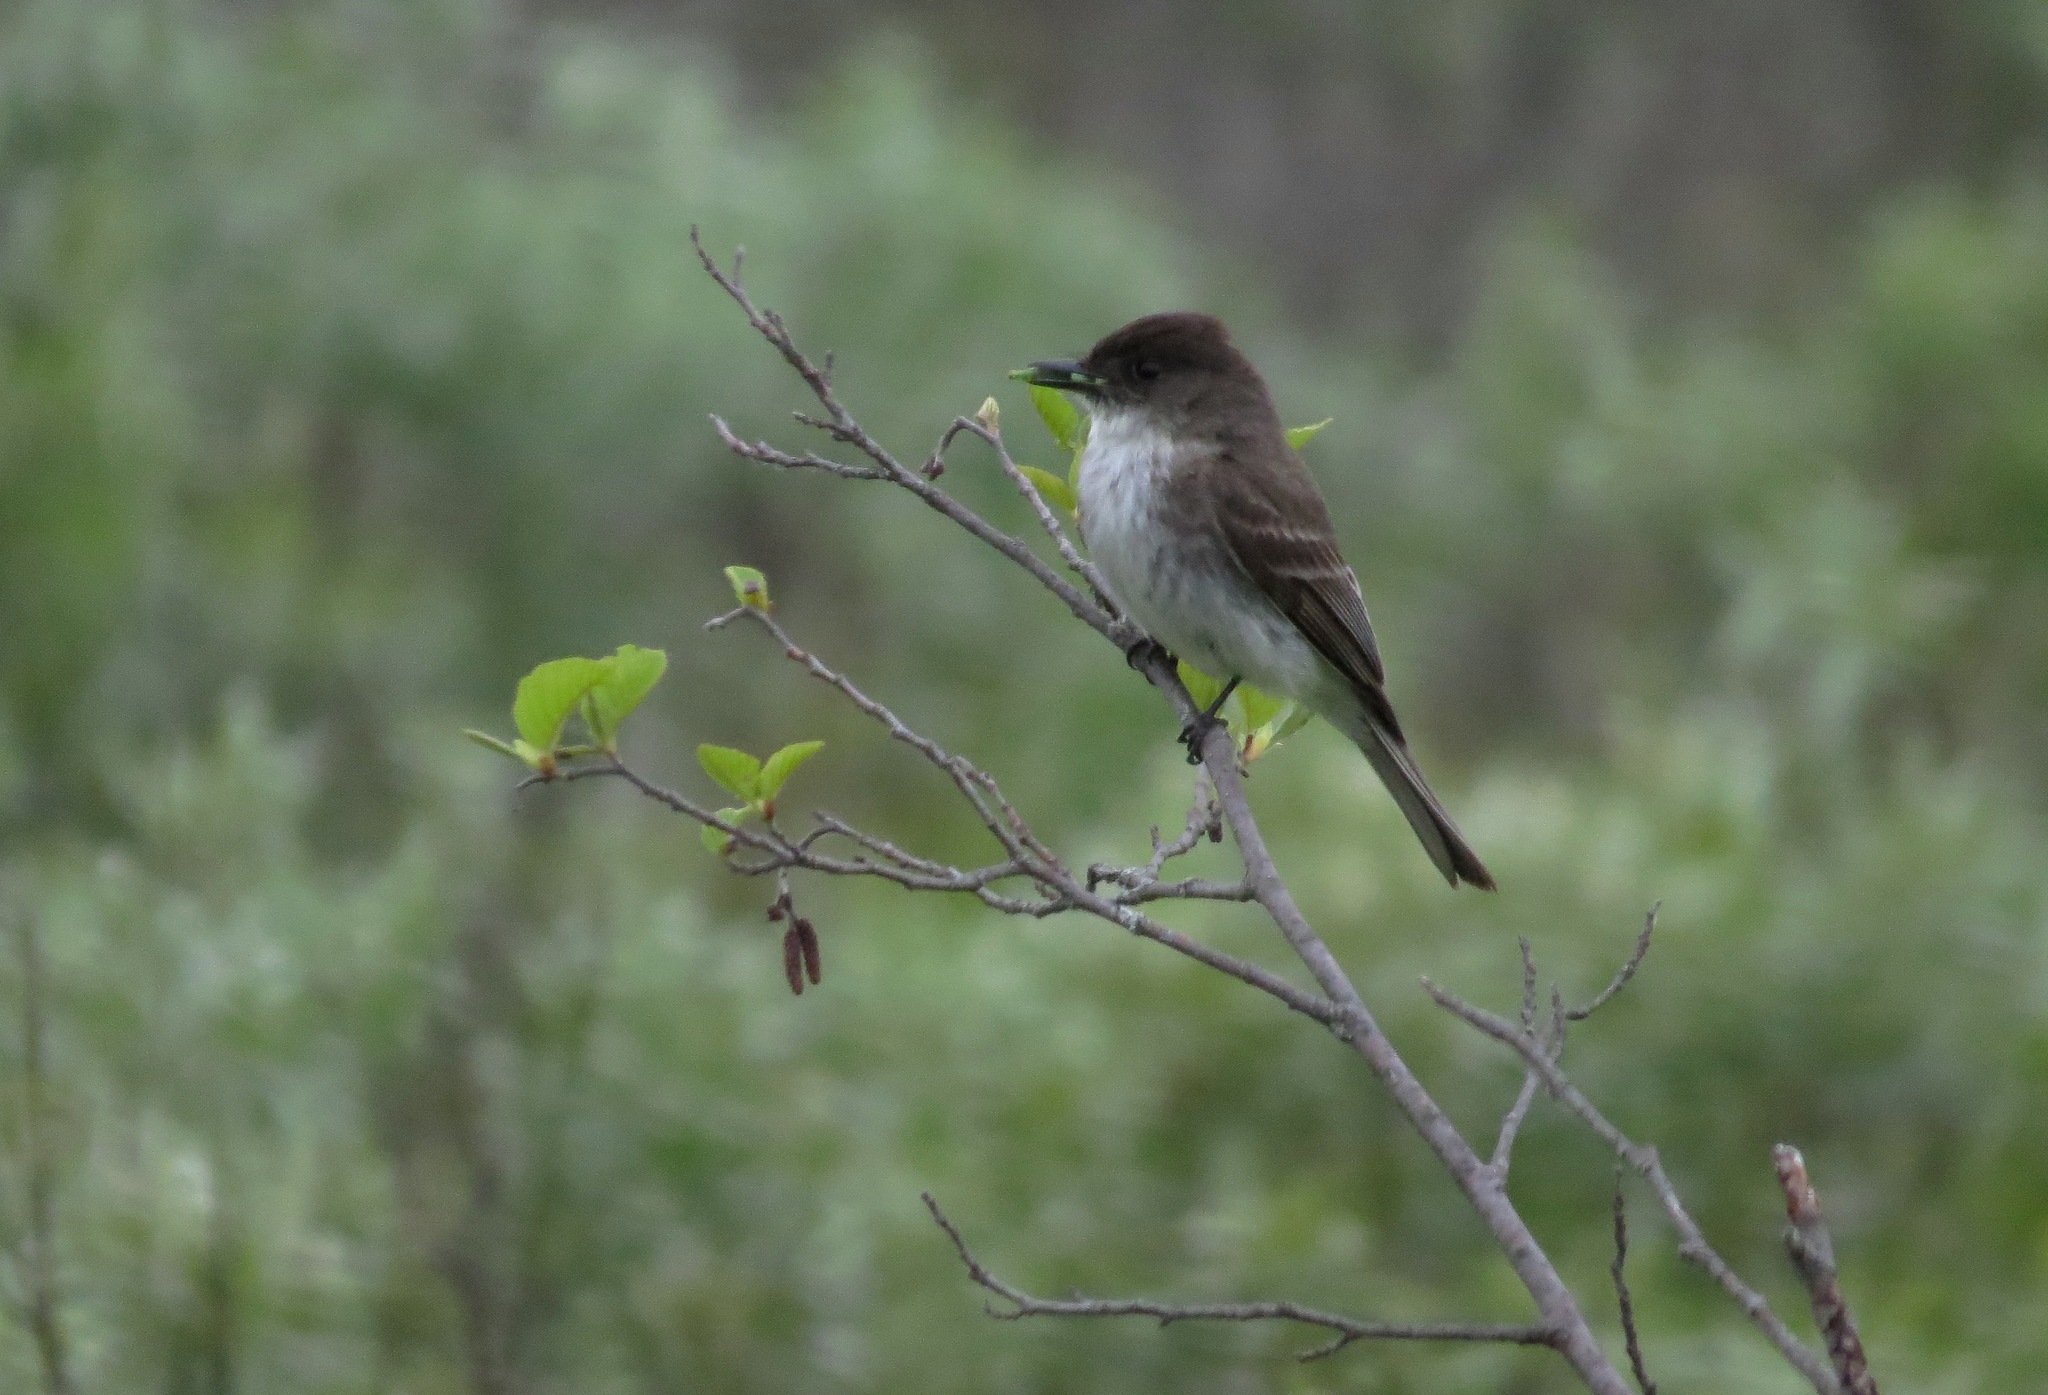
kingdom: Animalia
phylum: Chordata
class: Aves
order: Passeriformes
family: Tyrannidae
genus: Sayornis
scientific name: Sayornis phoebe
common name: Eastern phoebe
